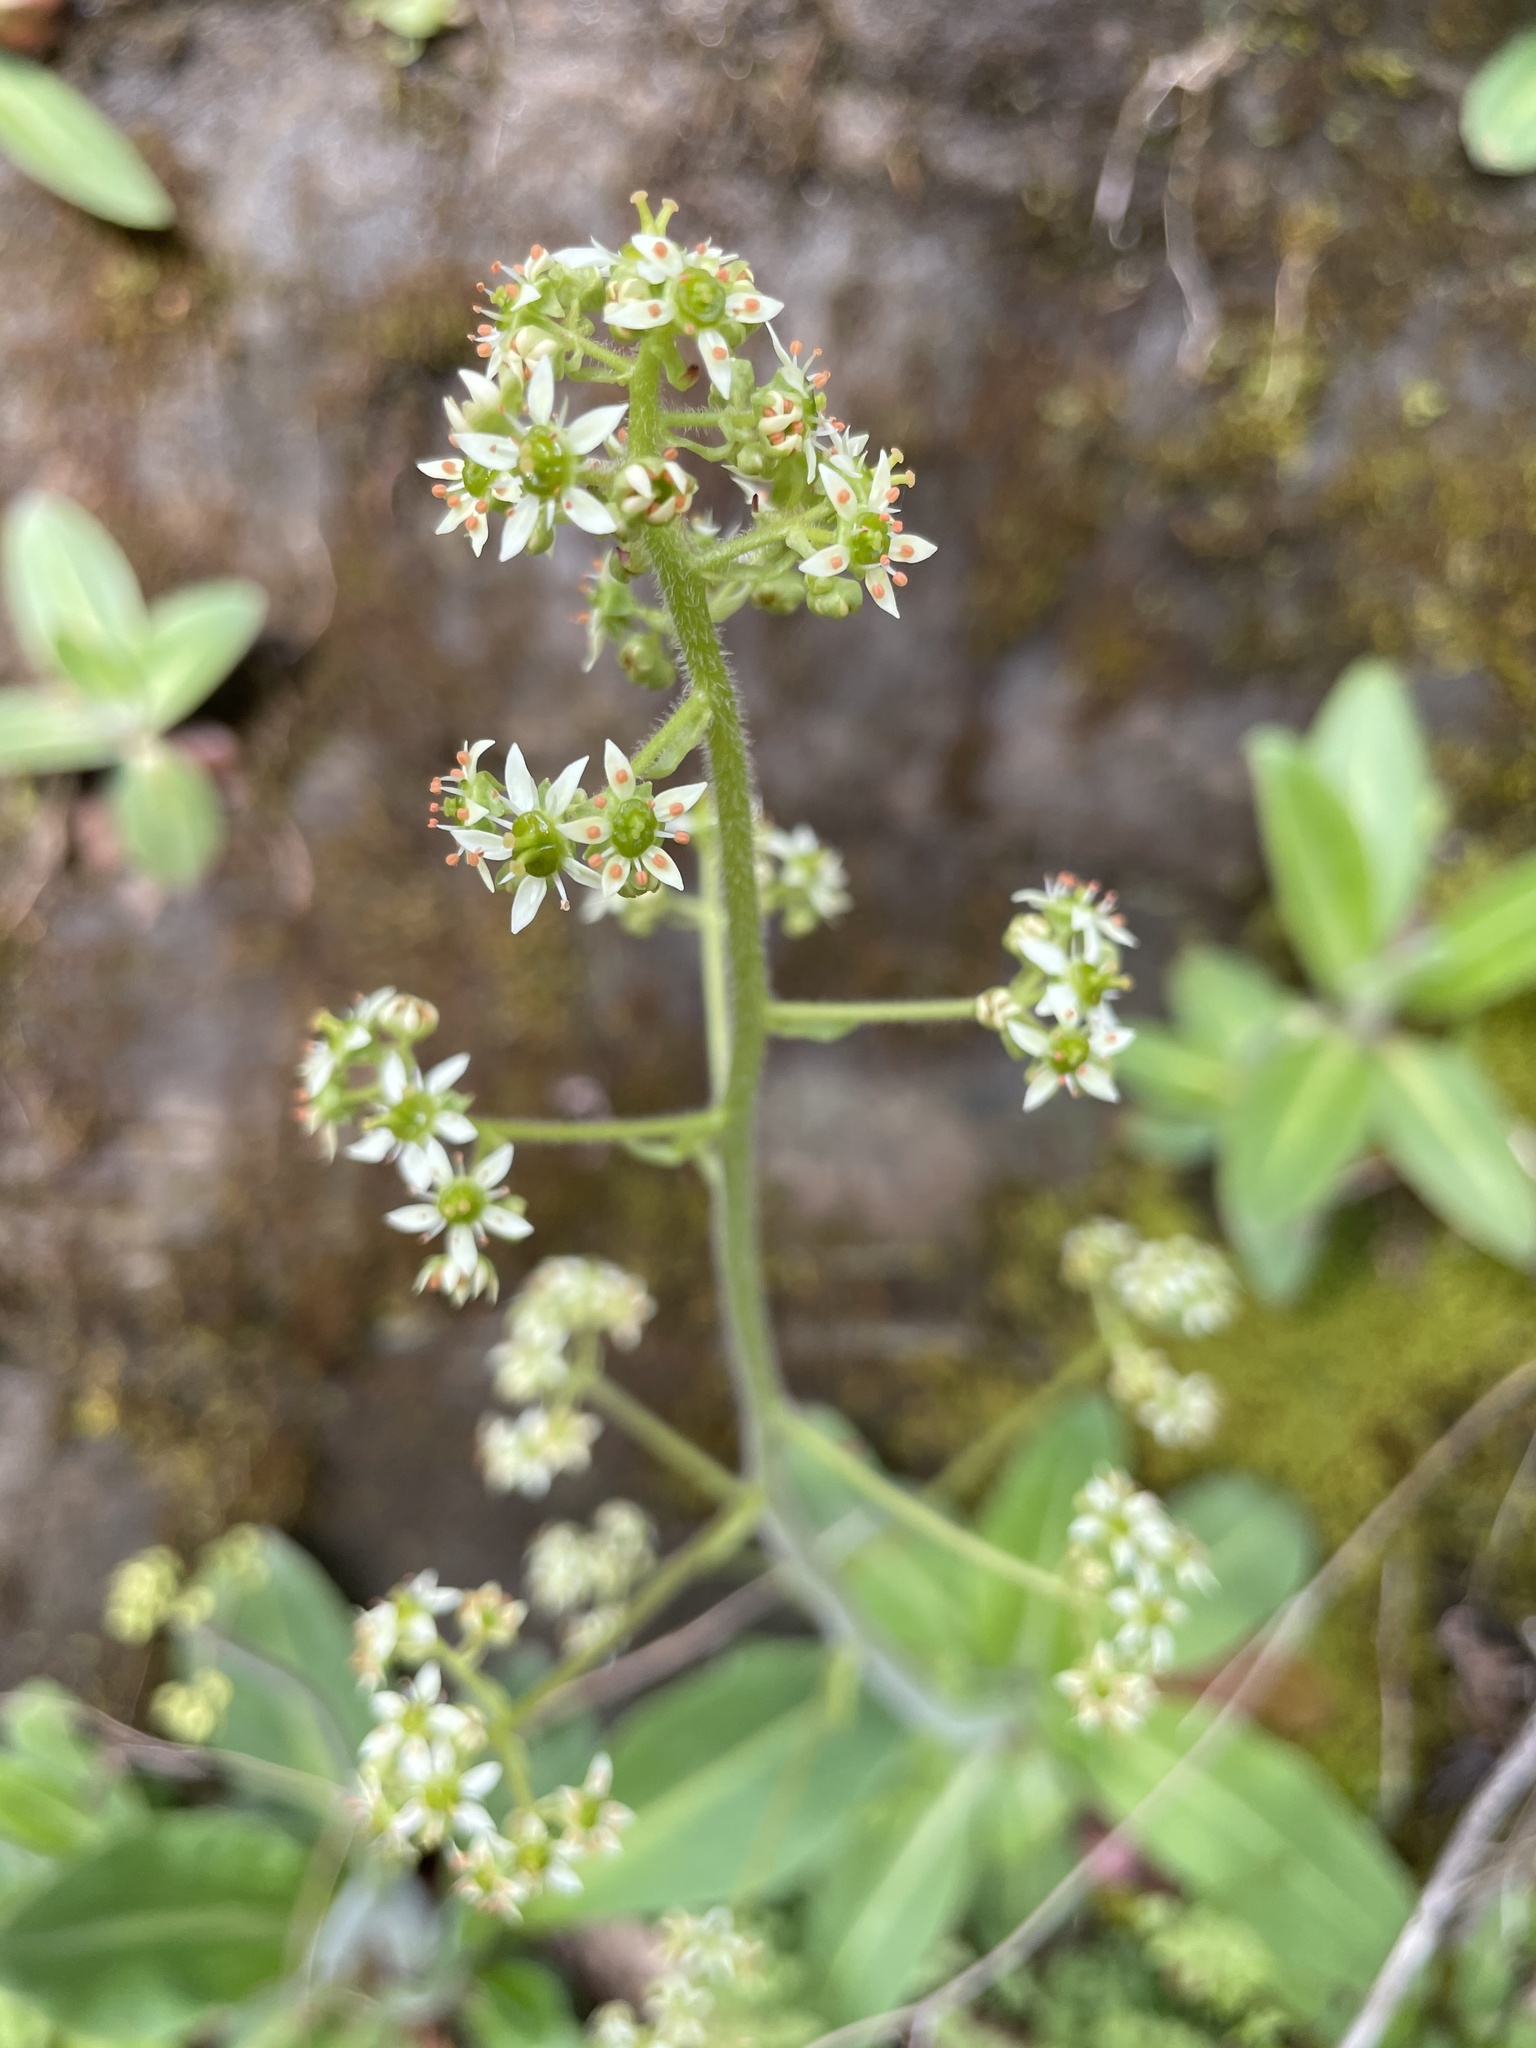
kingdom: Plantae
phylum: Tracheophyta
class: Magnoliopsida
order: Saxifragales
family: Saxifragaceae
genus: Micranthes
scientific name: Micranthes pensylvanica
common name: Marsh saxifrage
